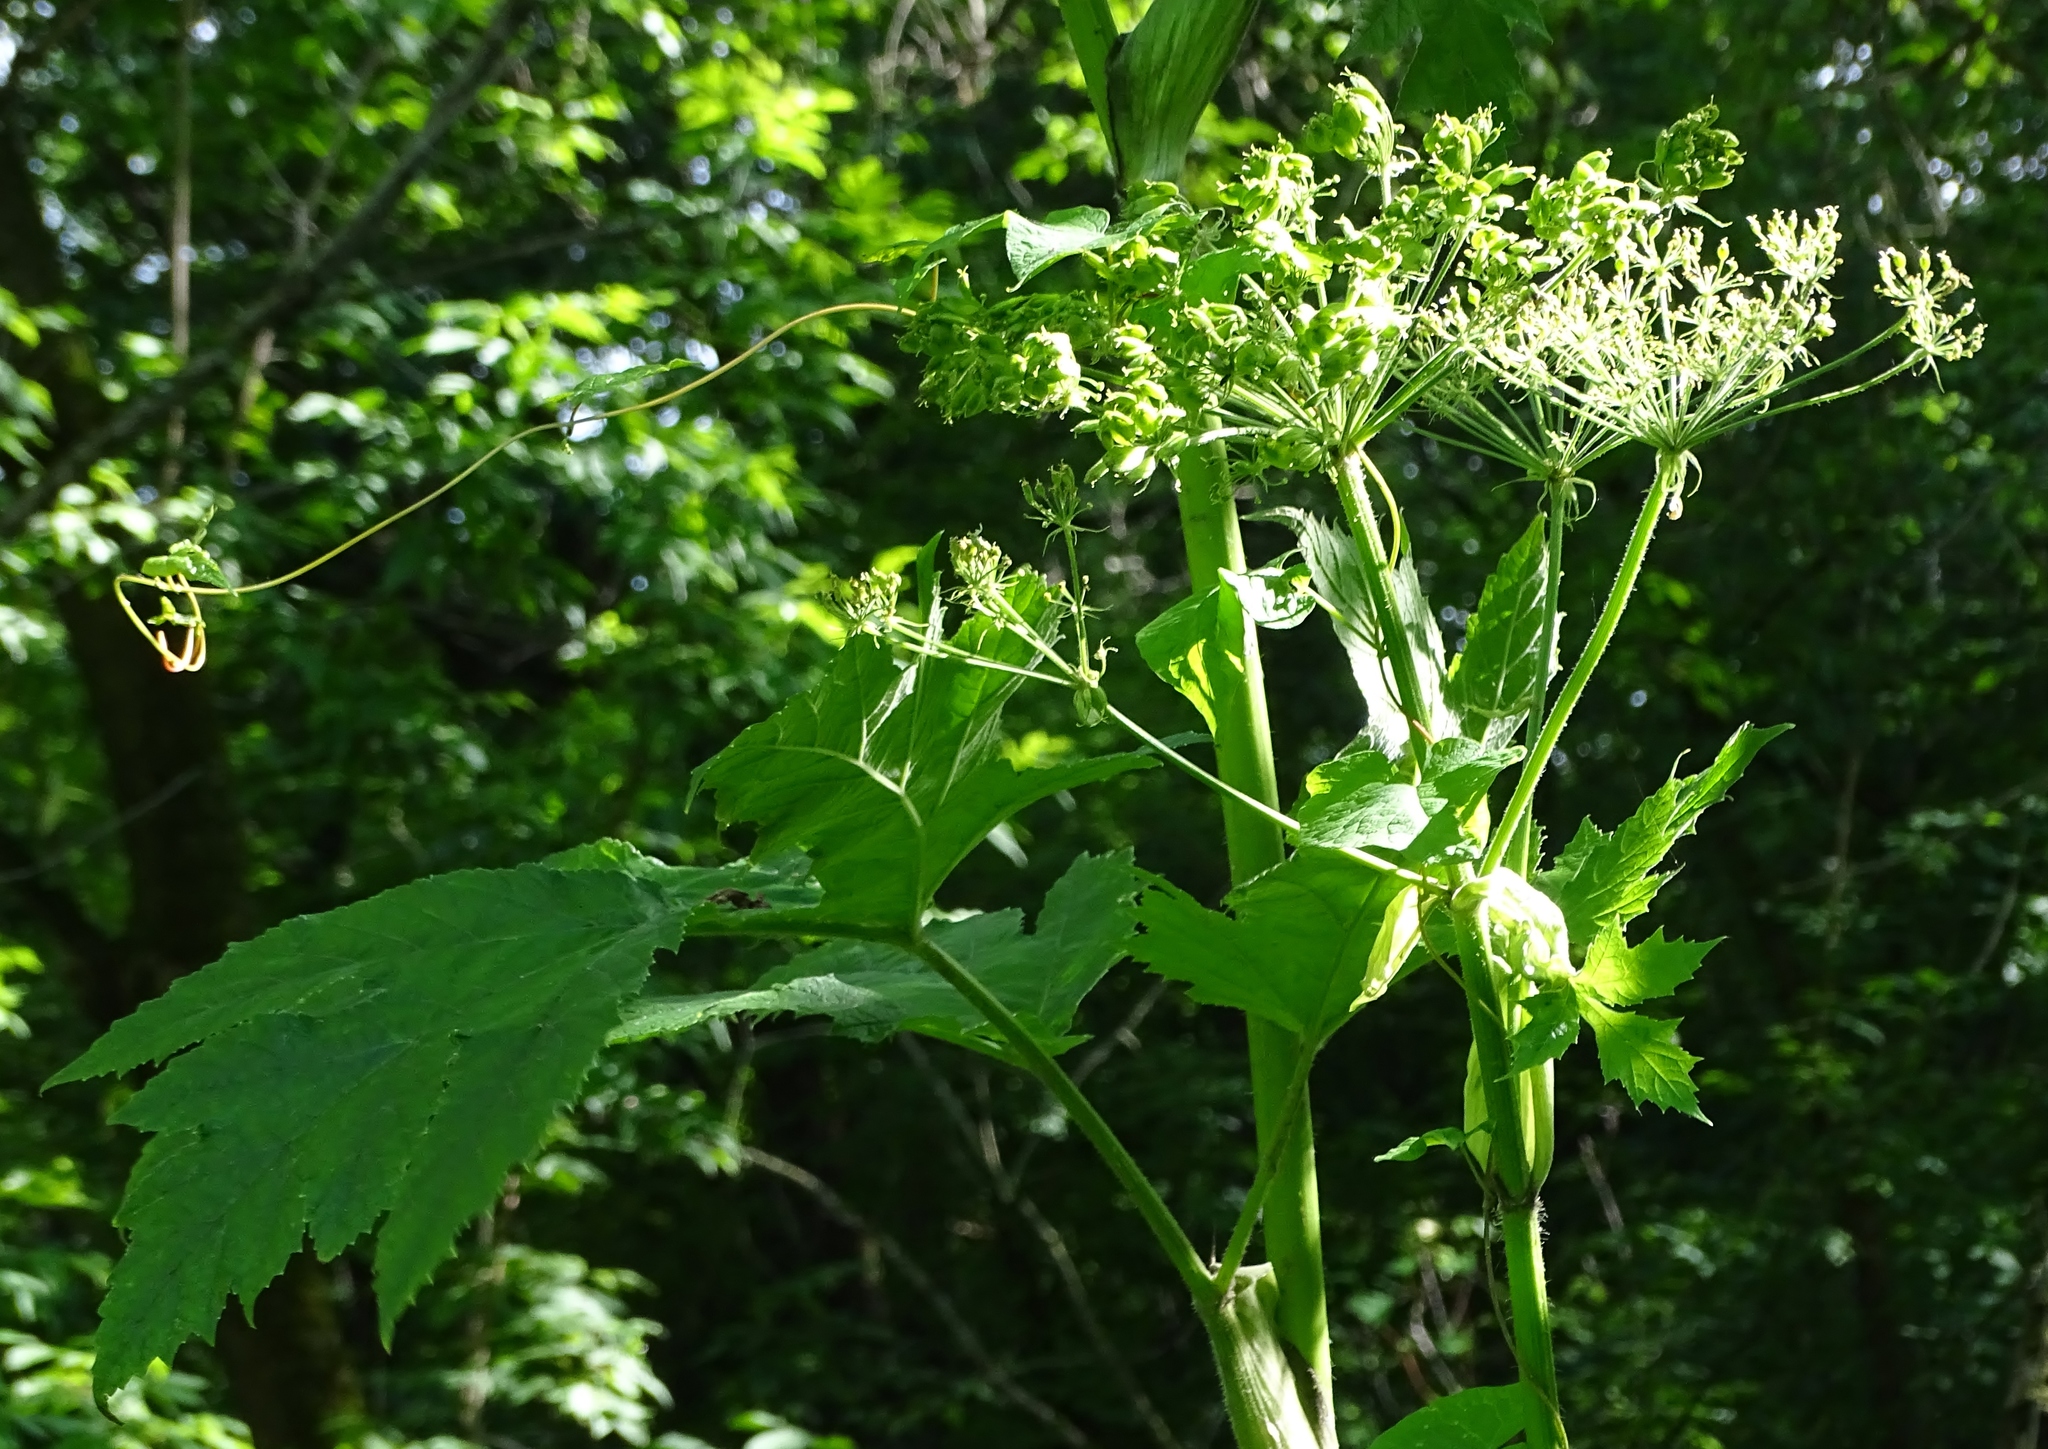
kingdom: Plantae
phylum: Tracheophyta
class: Magnoliopsida
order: Apiales
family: Apiaceae
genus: Heracleum
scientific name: Heracleum maximum
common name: American cow parsnip
